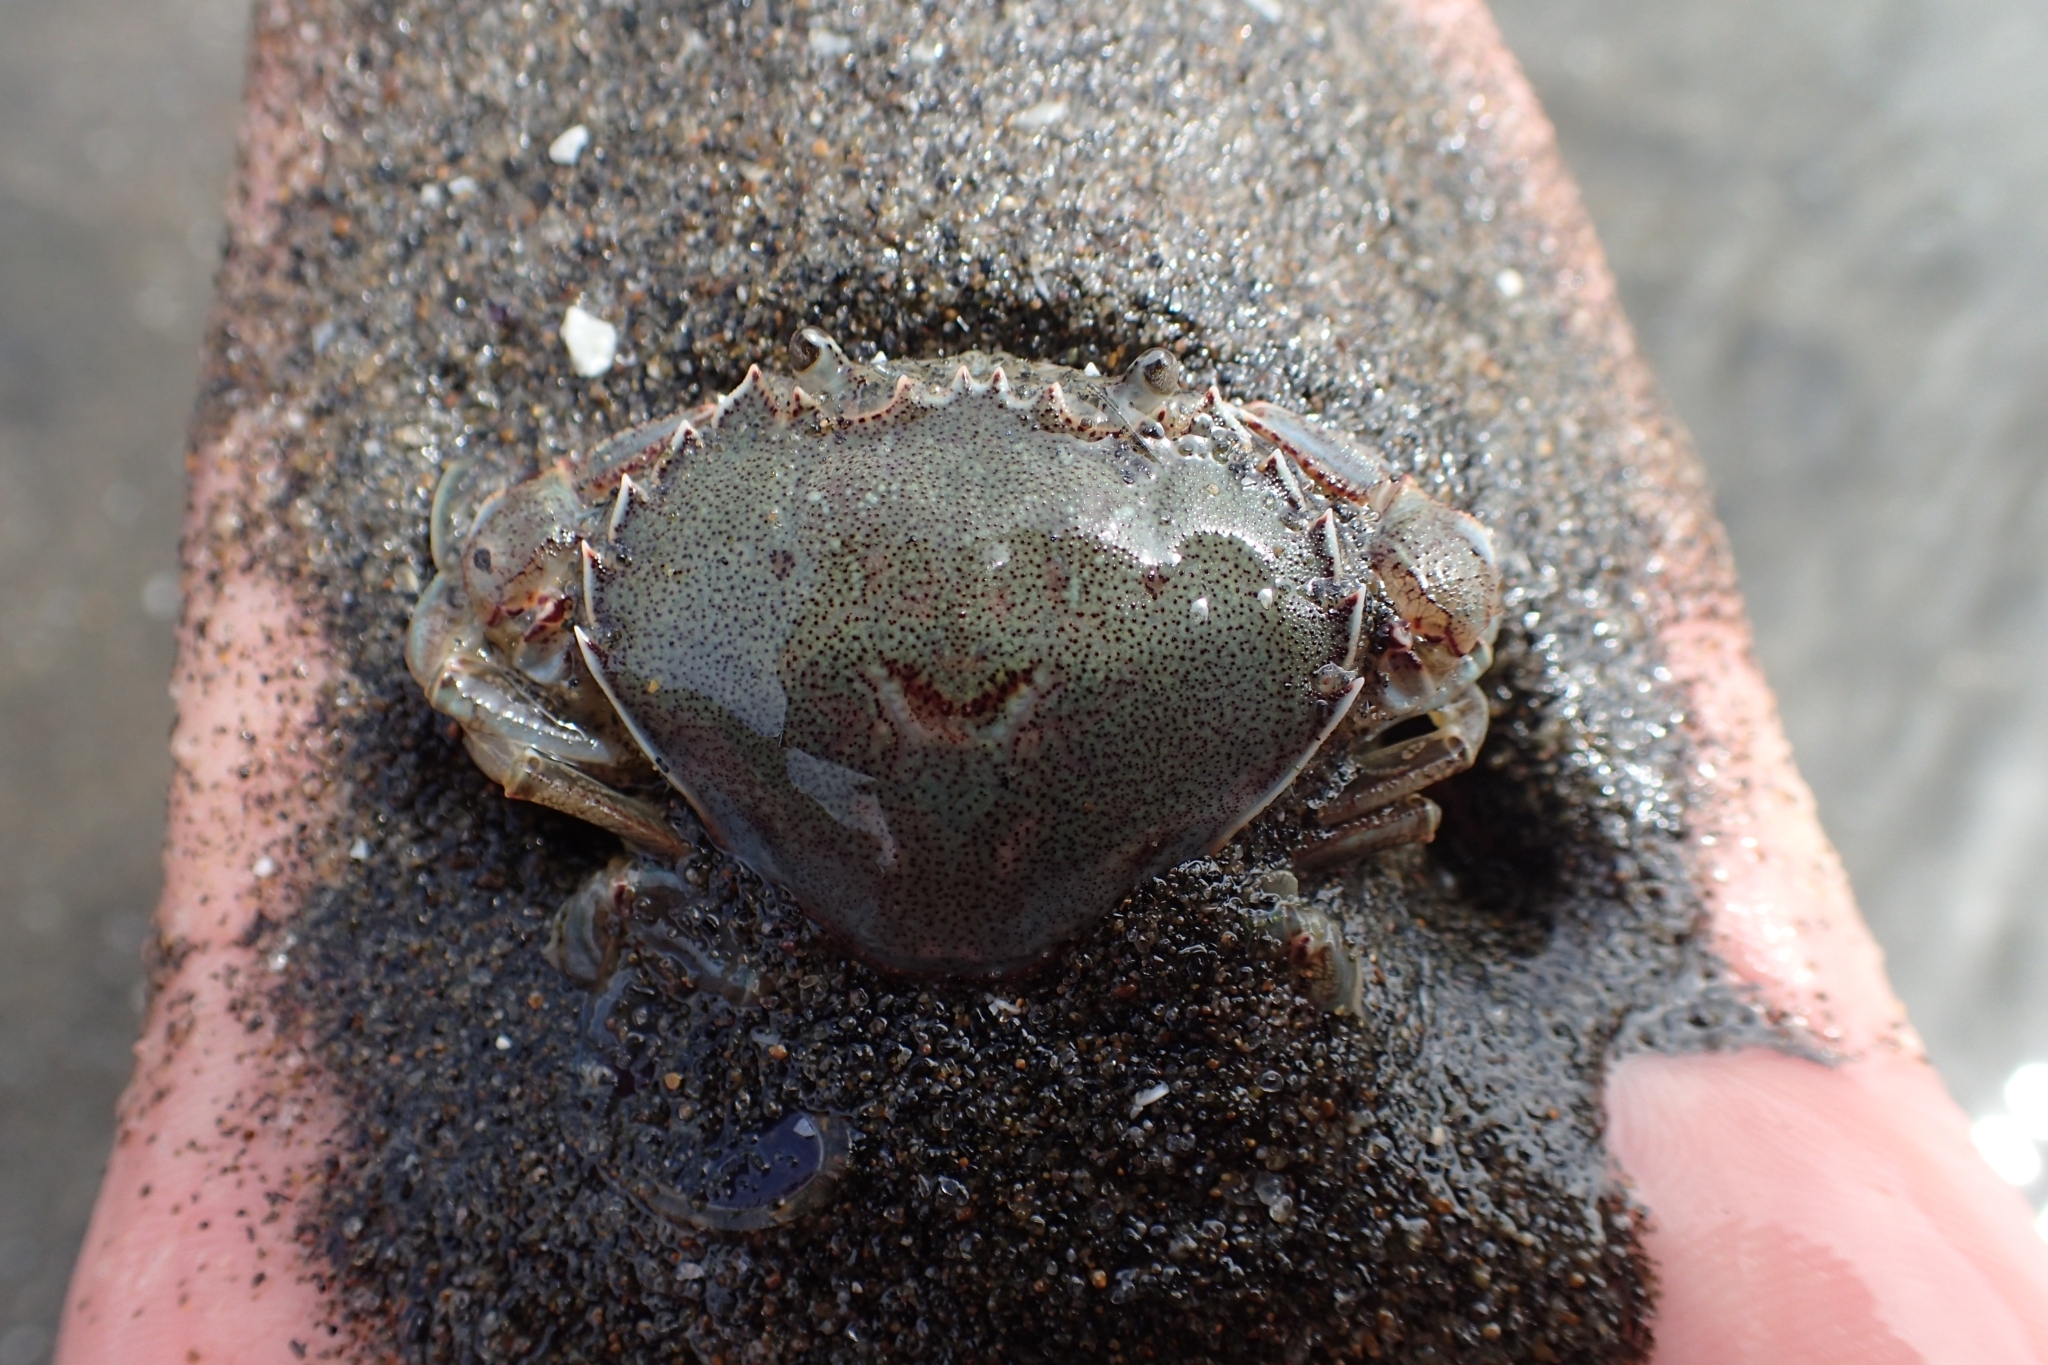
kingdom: Animalia
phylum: Arthropoda
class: Malacostraca
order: Decapoda
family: Ovalipidae
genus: Ovalipes
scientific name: Ovalipes catharus
